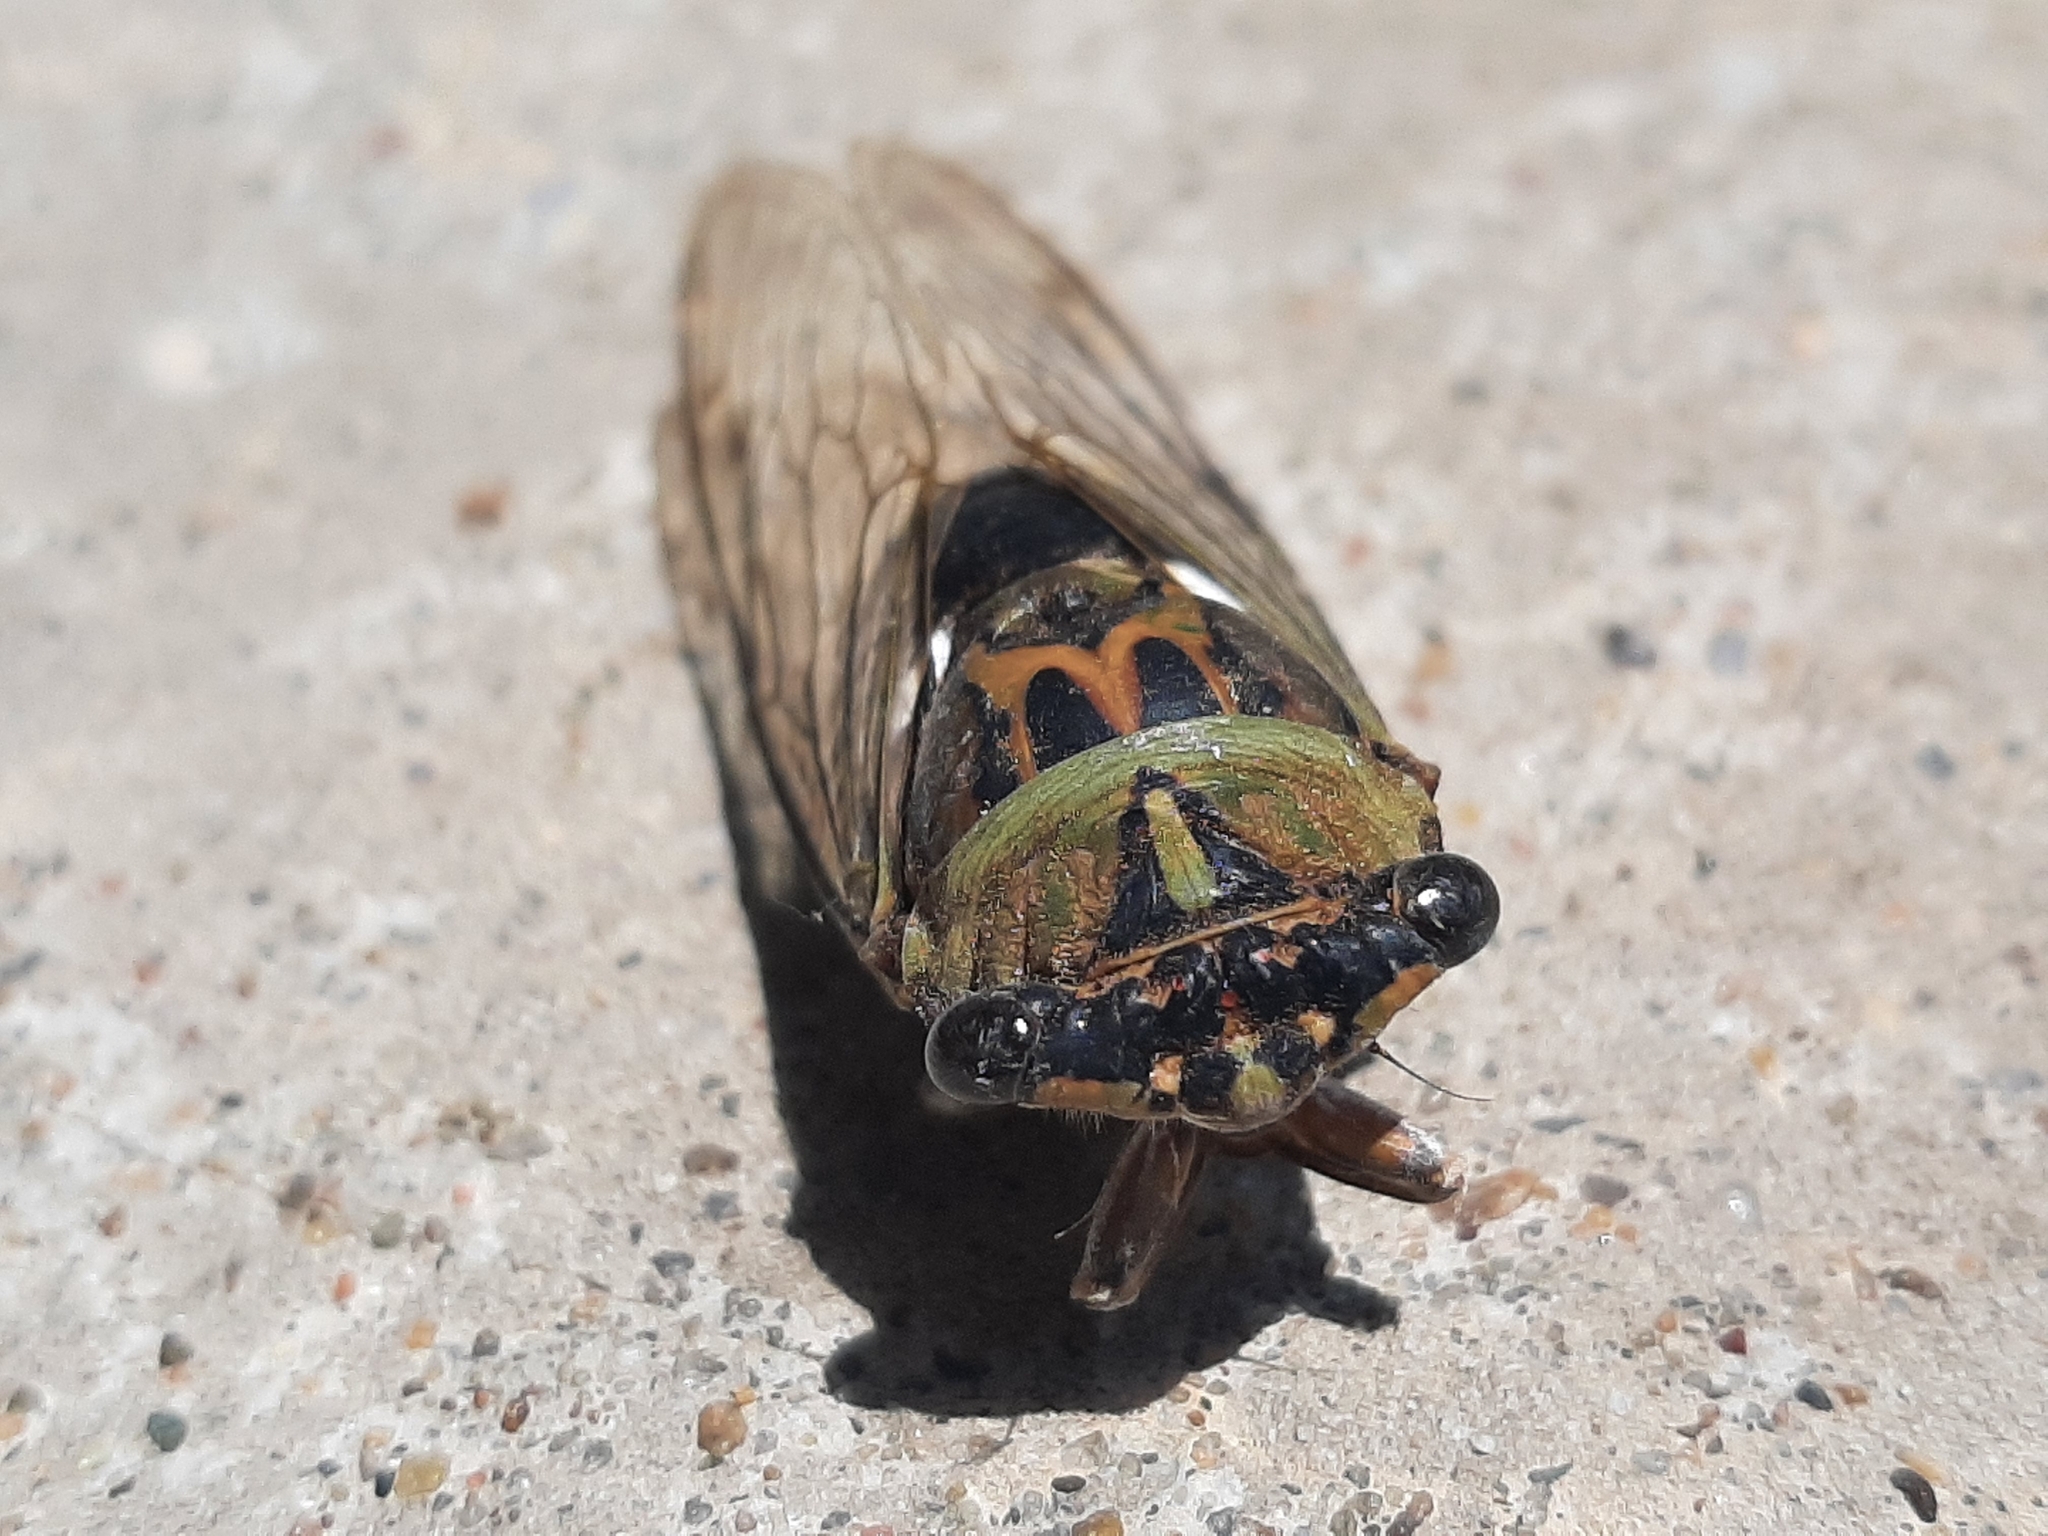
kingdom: Animalia
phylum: Arthropoda
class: Insecta
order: Hemiptera
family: Cicadidae
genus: Neotibicen
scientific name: Neotibicen pruinosus
